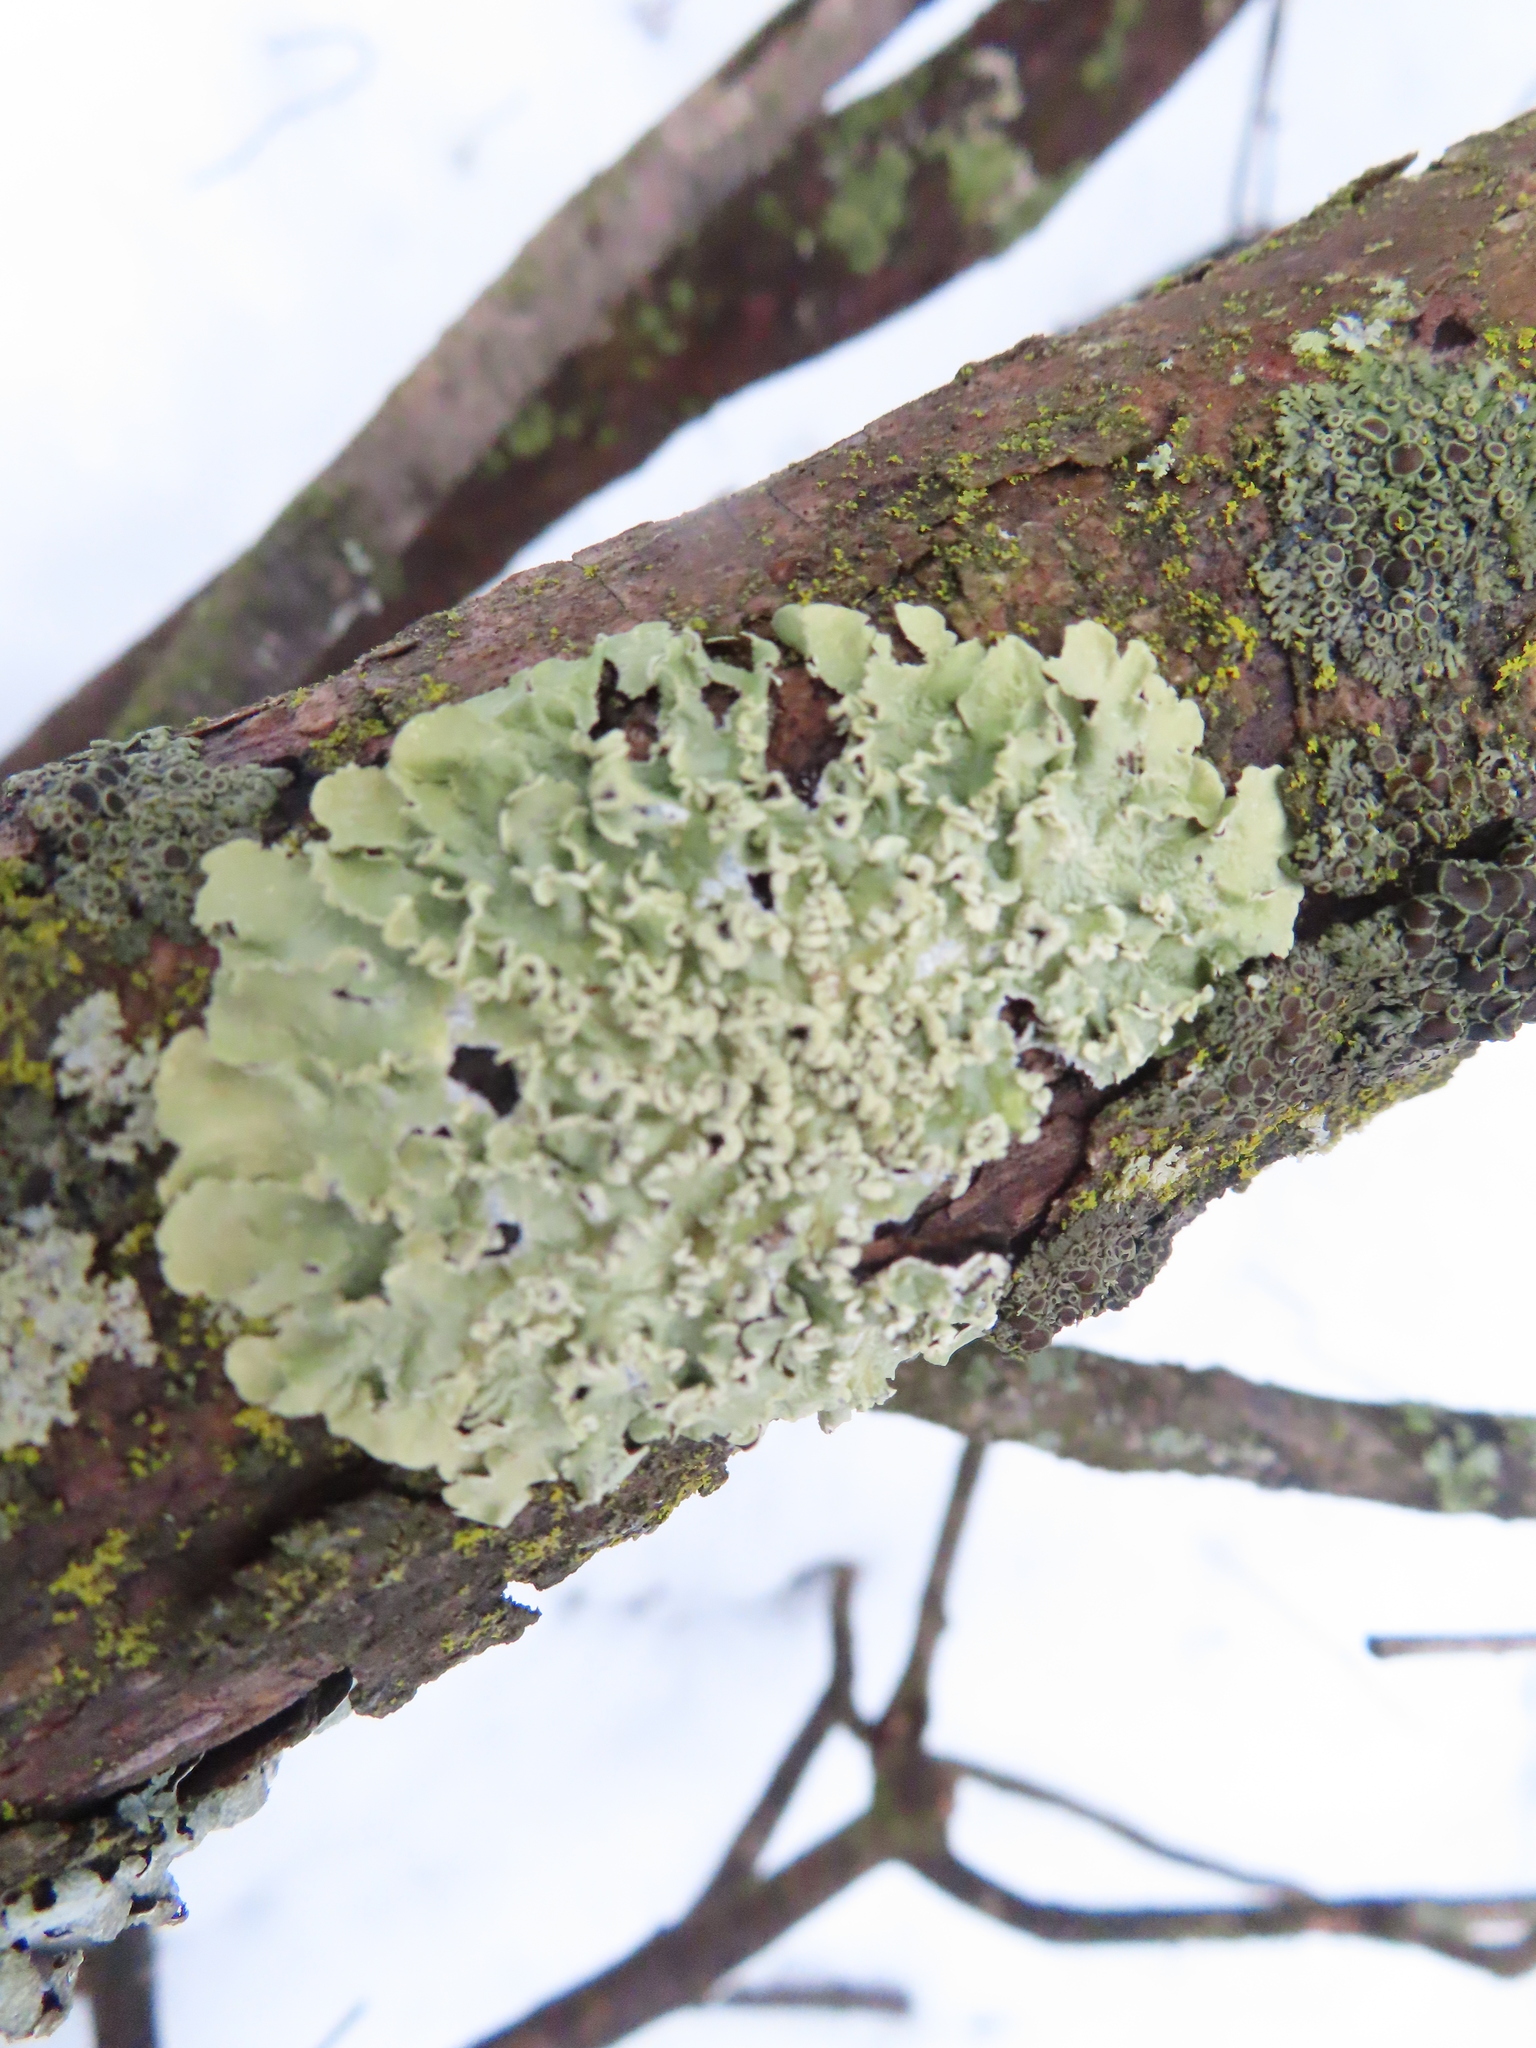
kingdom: Fungi
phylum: Ascomycota
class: Lecanoromycetes
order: Lecanorales
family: Parmeliaceae
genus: Flavopunctelia
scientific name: Flavopunctelia soredica
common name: Powder-edged speckled greenshield
